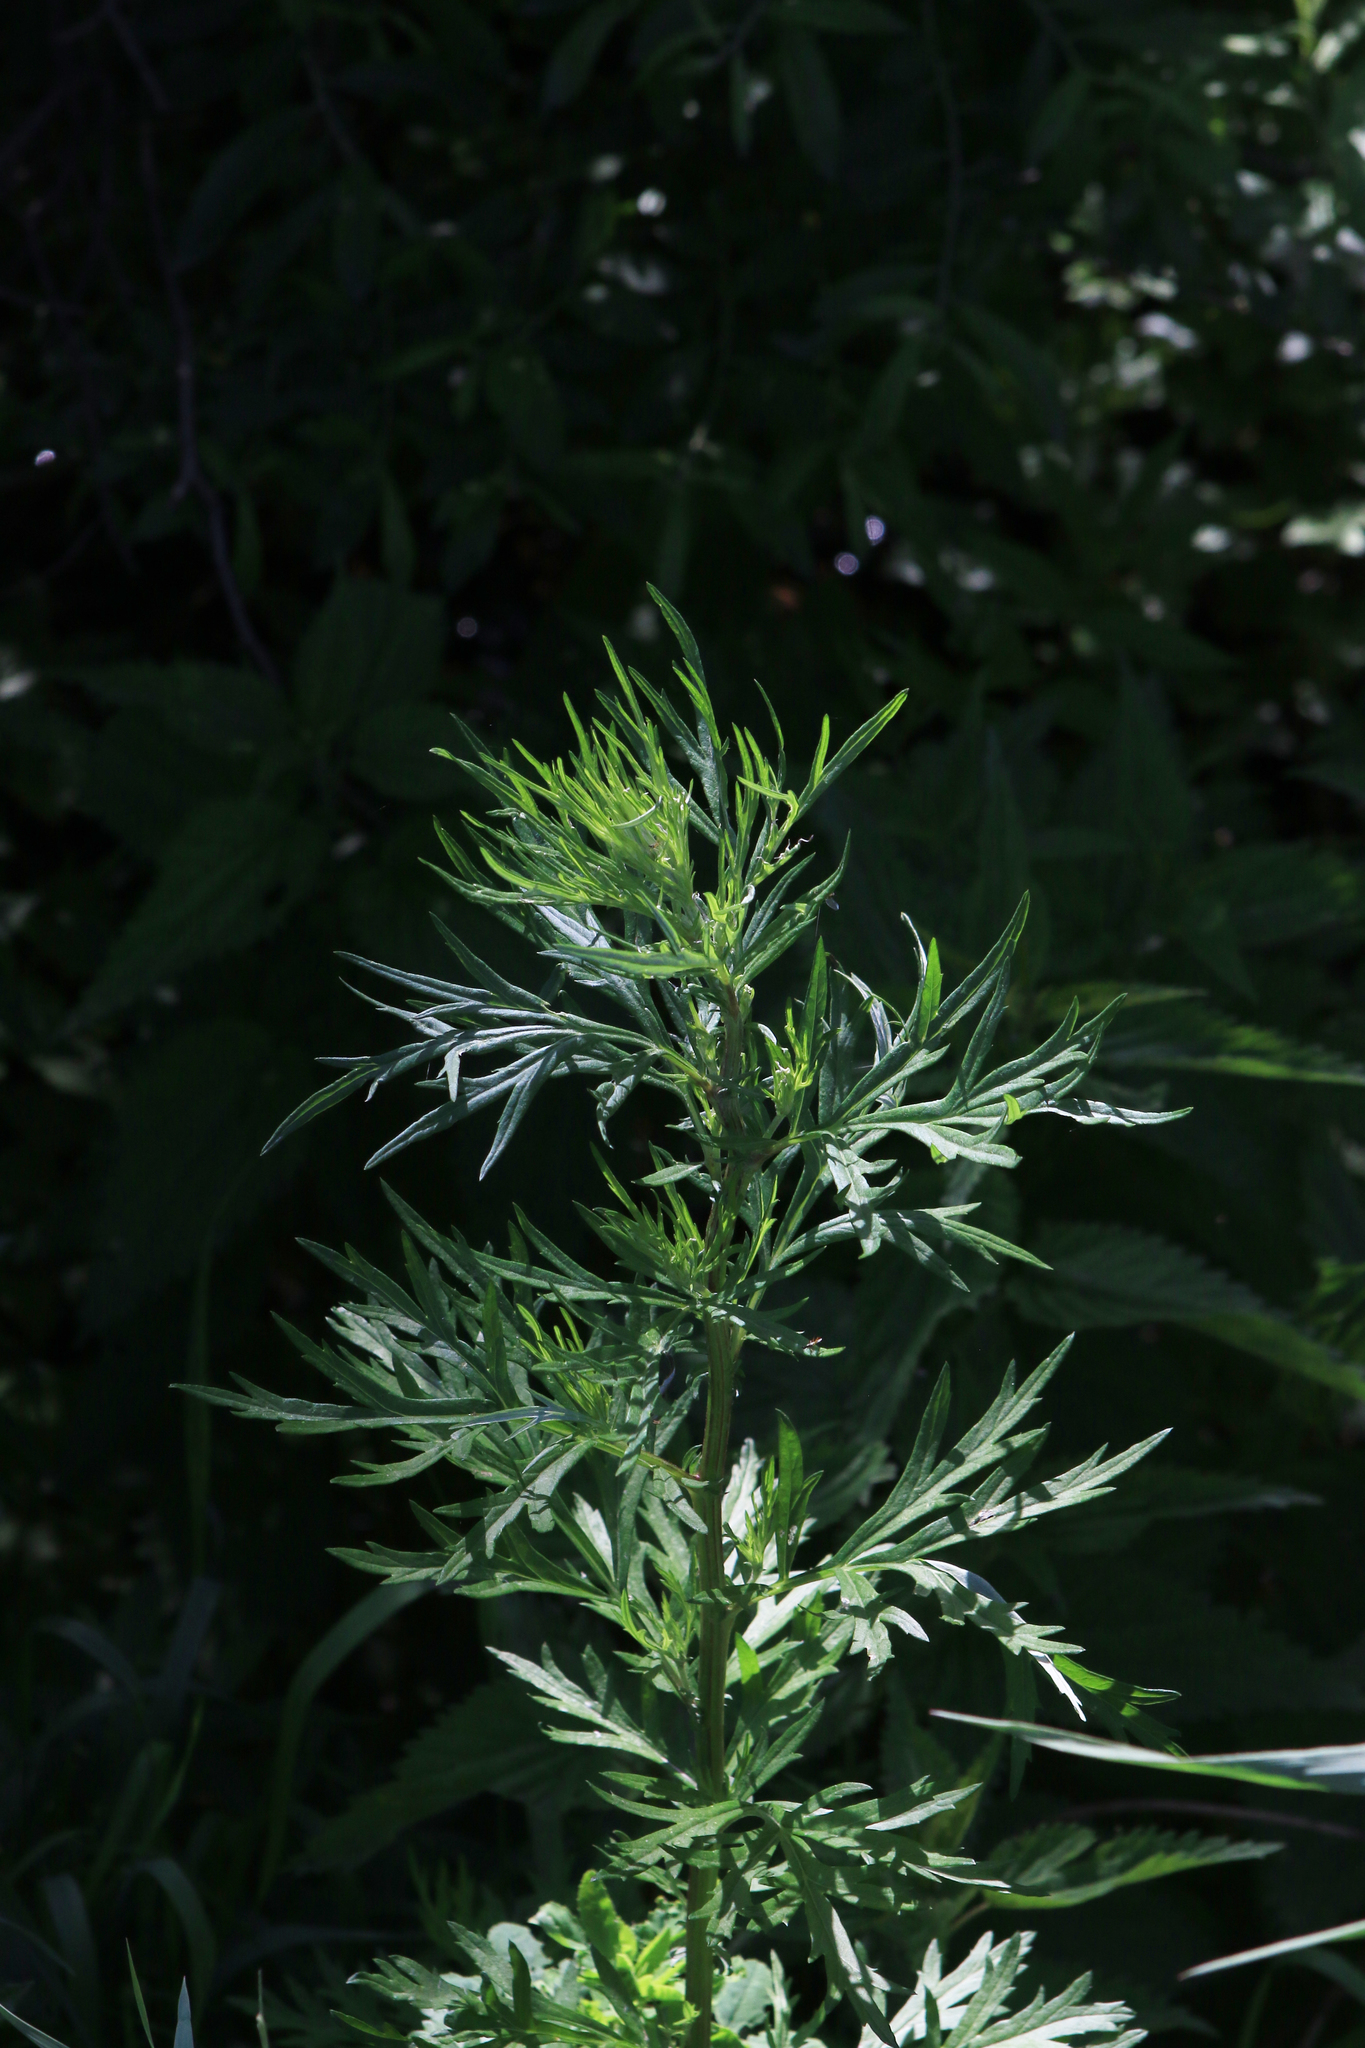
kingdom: Plantae
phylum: Tracheophyta
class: Magnoliopsida
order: Asterales
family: Asteraceae
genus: Artemisia
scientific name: Artemisia vulgaris
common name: Mugwort
